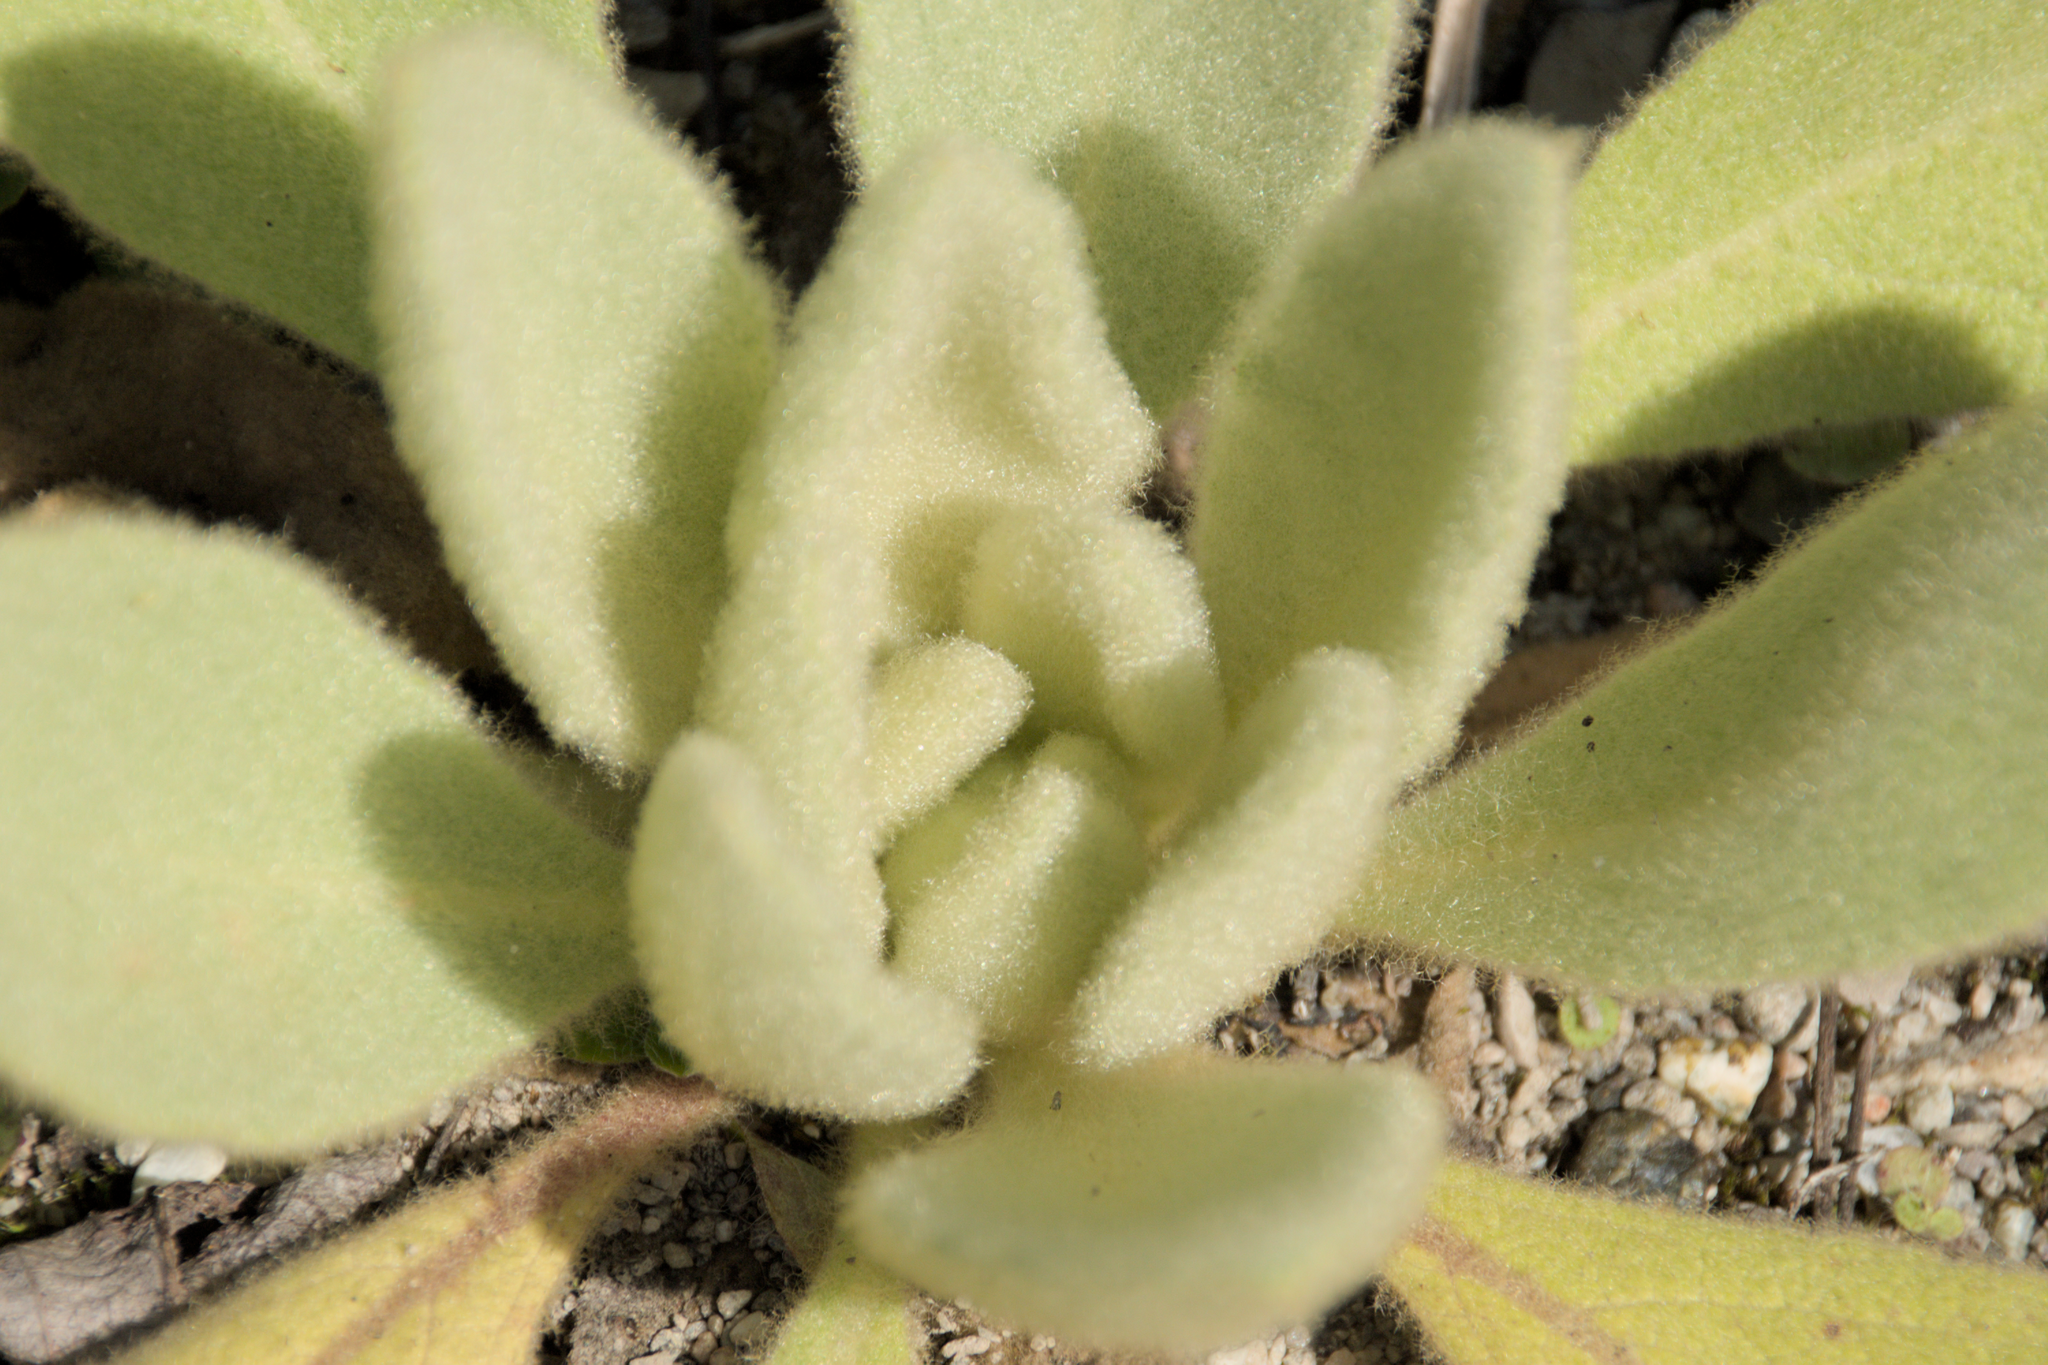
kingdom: Plantae
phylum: Tracheophyta
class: Magnoliopsida
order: Lamiales
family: Scrophulariaceae
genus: Verbascum
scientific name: Verbascum thapsus
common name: Common mullein
